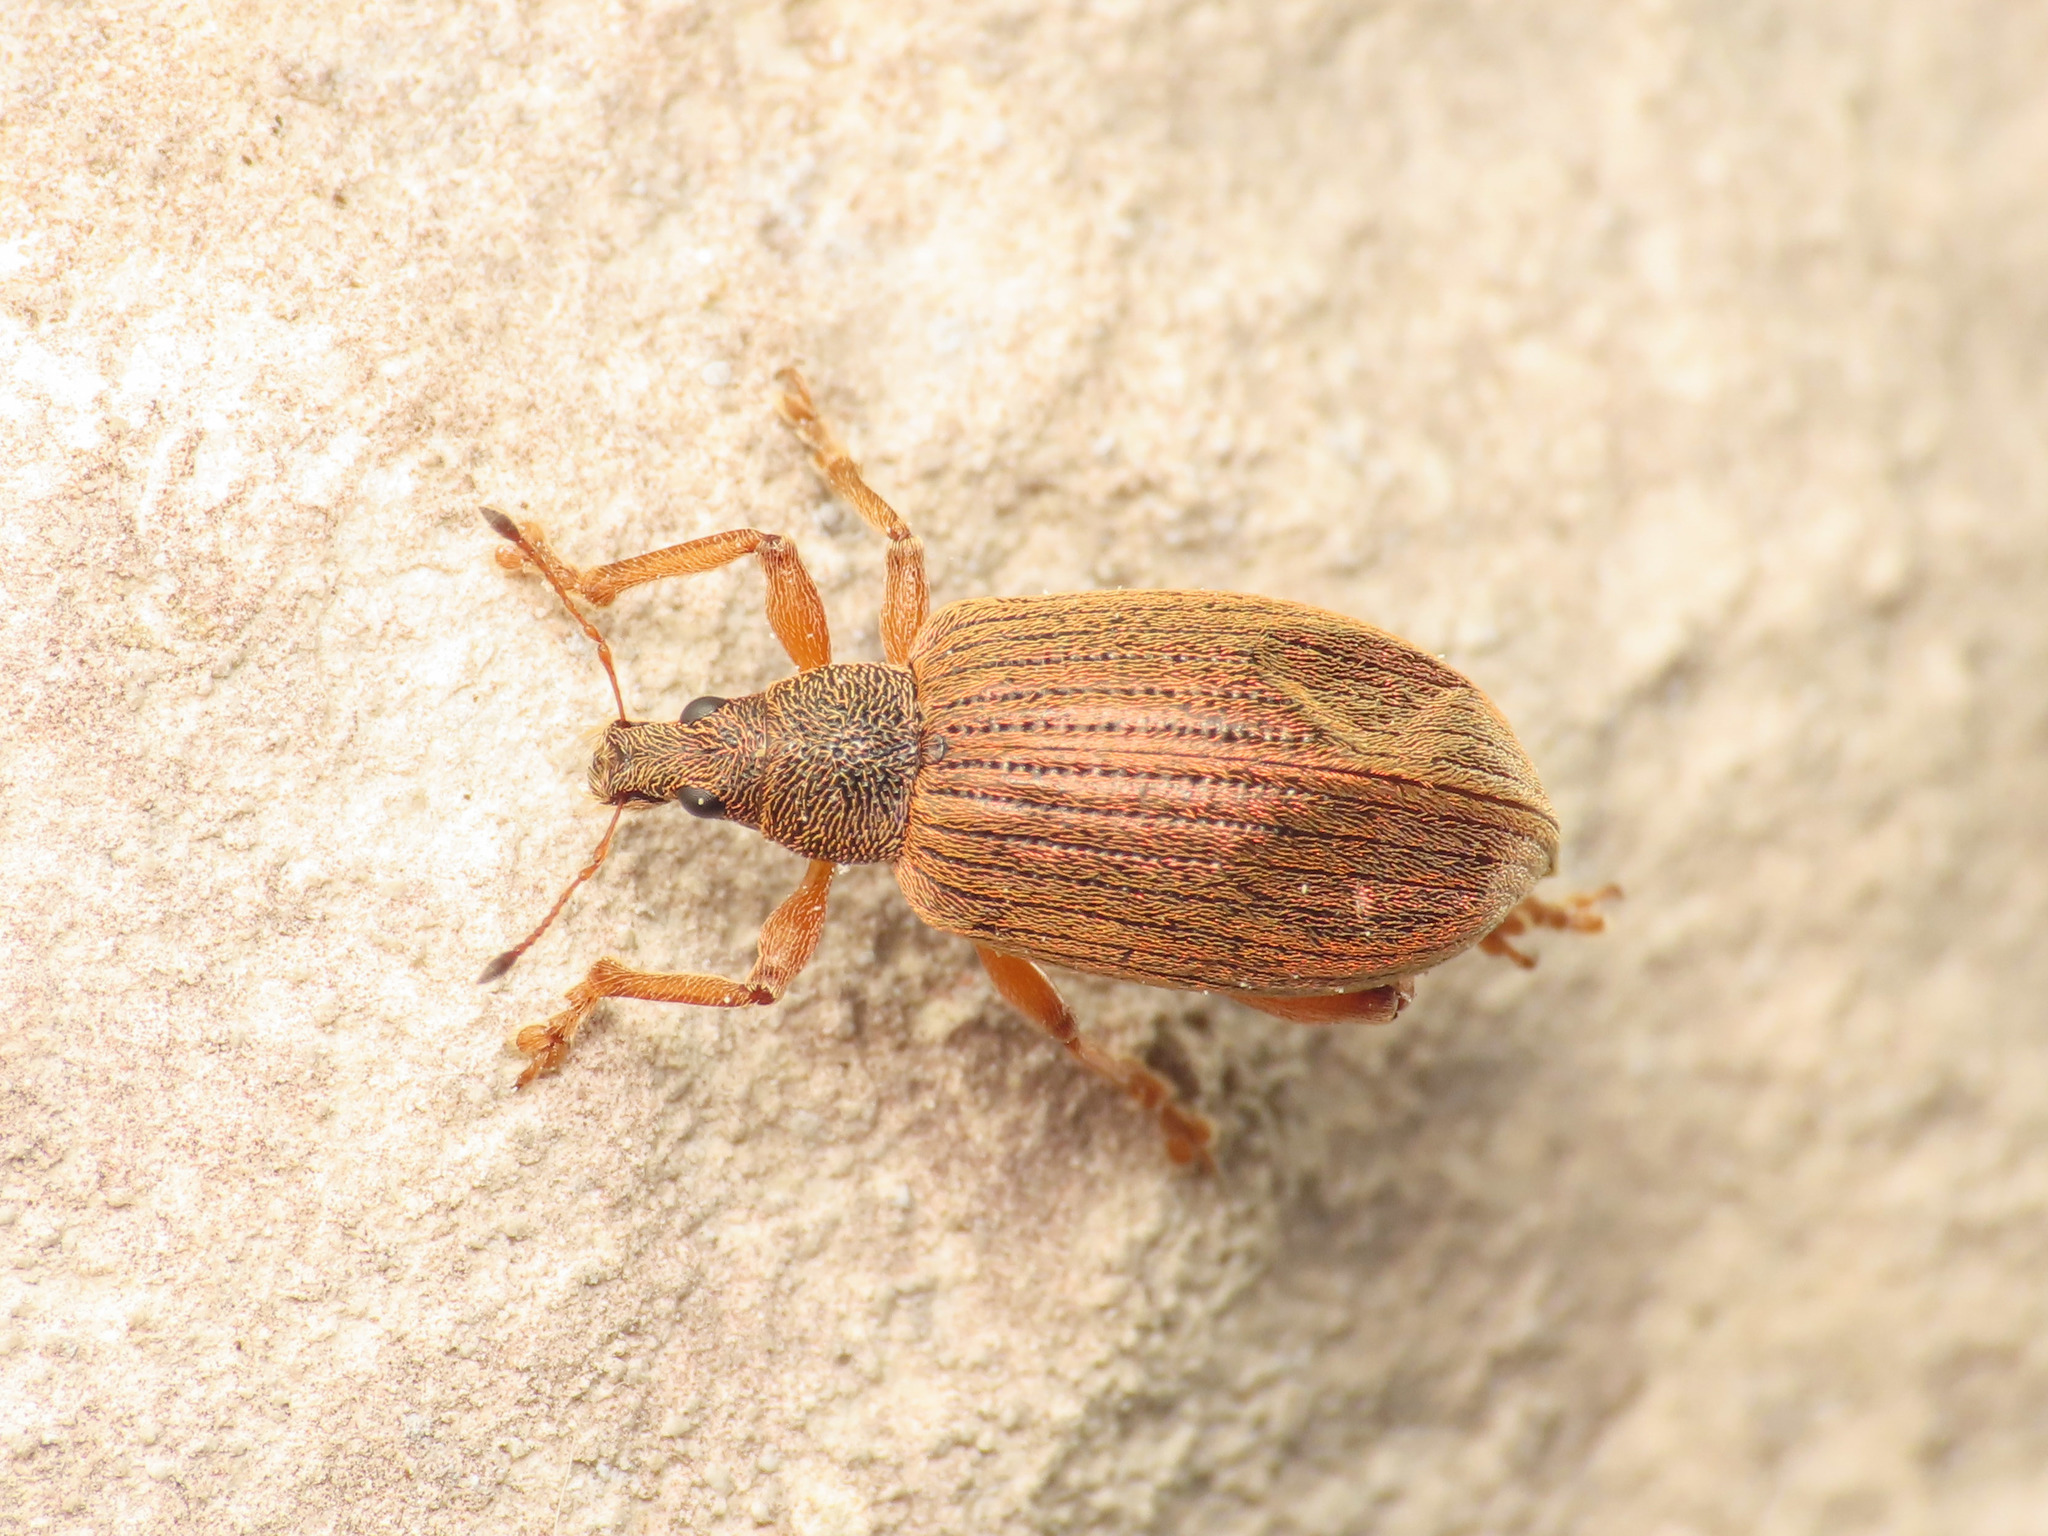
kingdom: Animalia
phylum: Arthropoda
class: Insecta
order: Coleoptera
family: Curculionidae
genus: Polydrusus
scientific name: Polydrusus mollis
